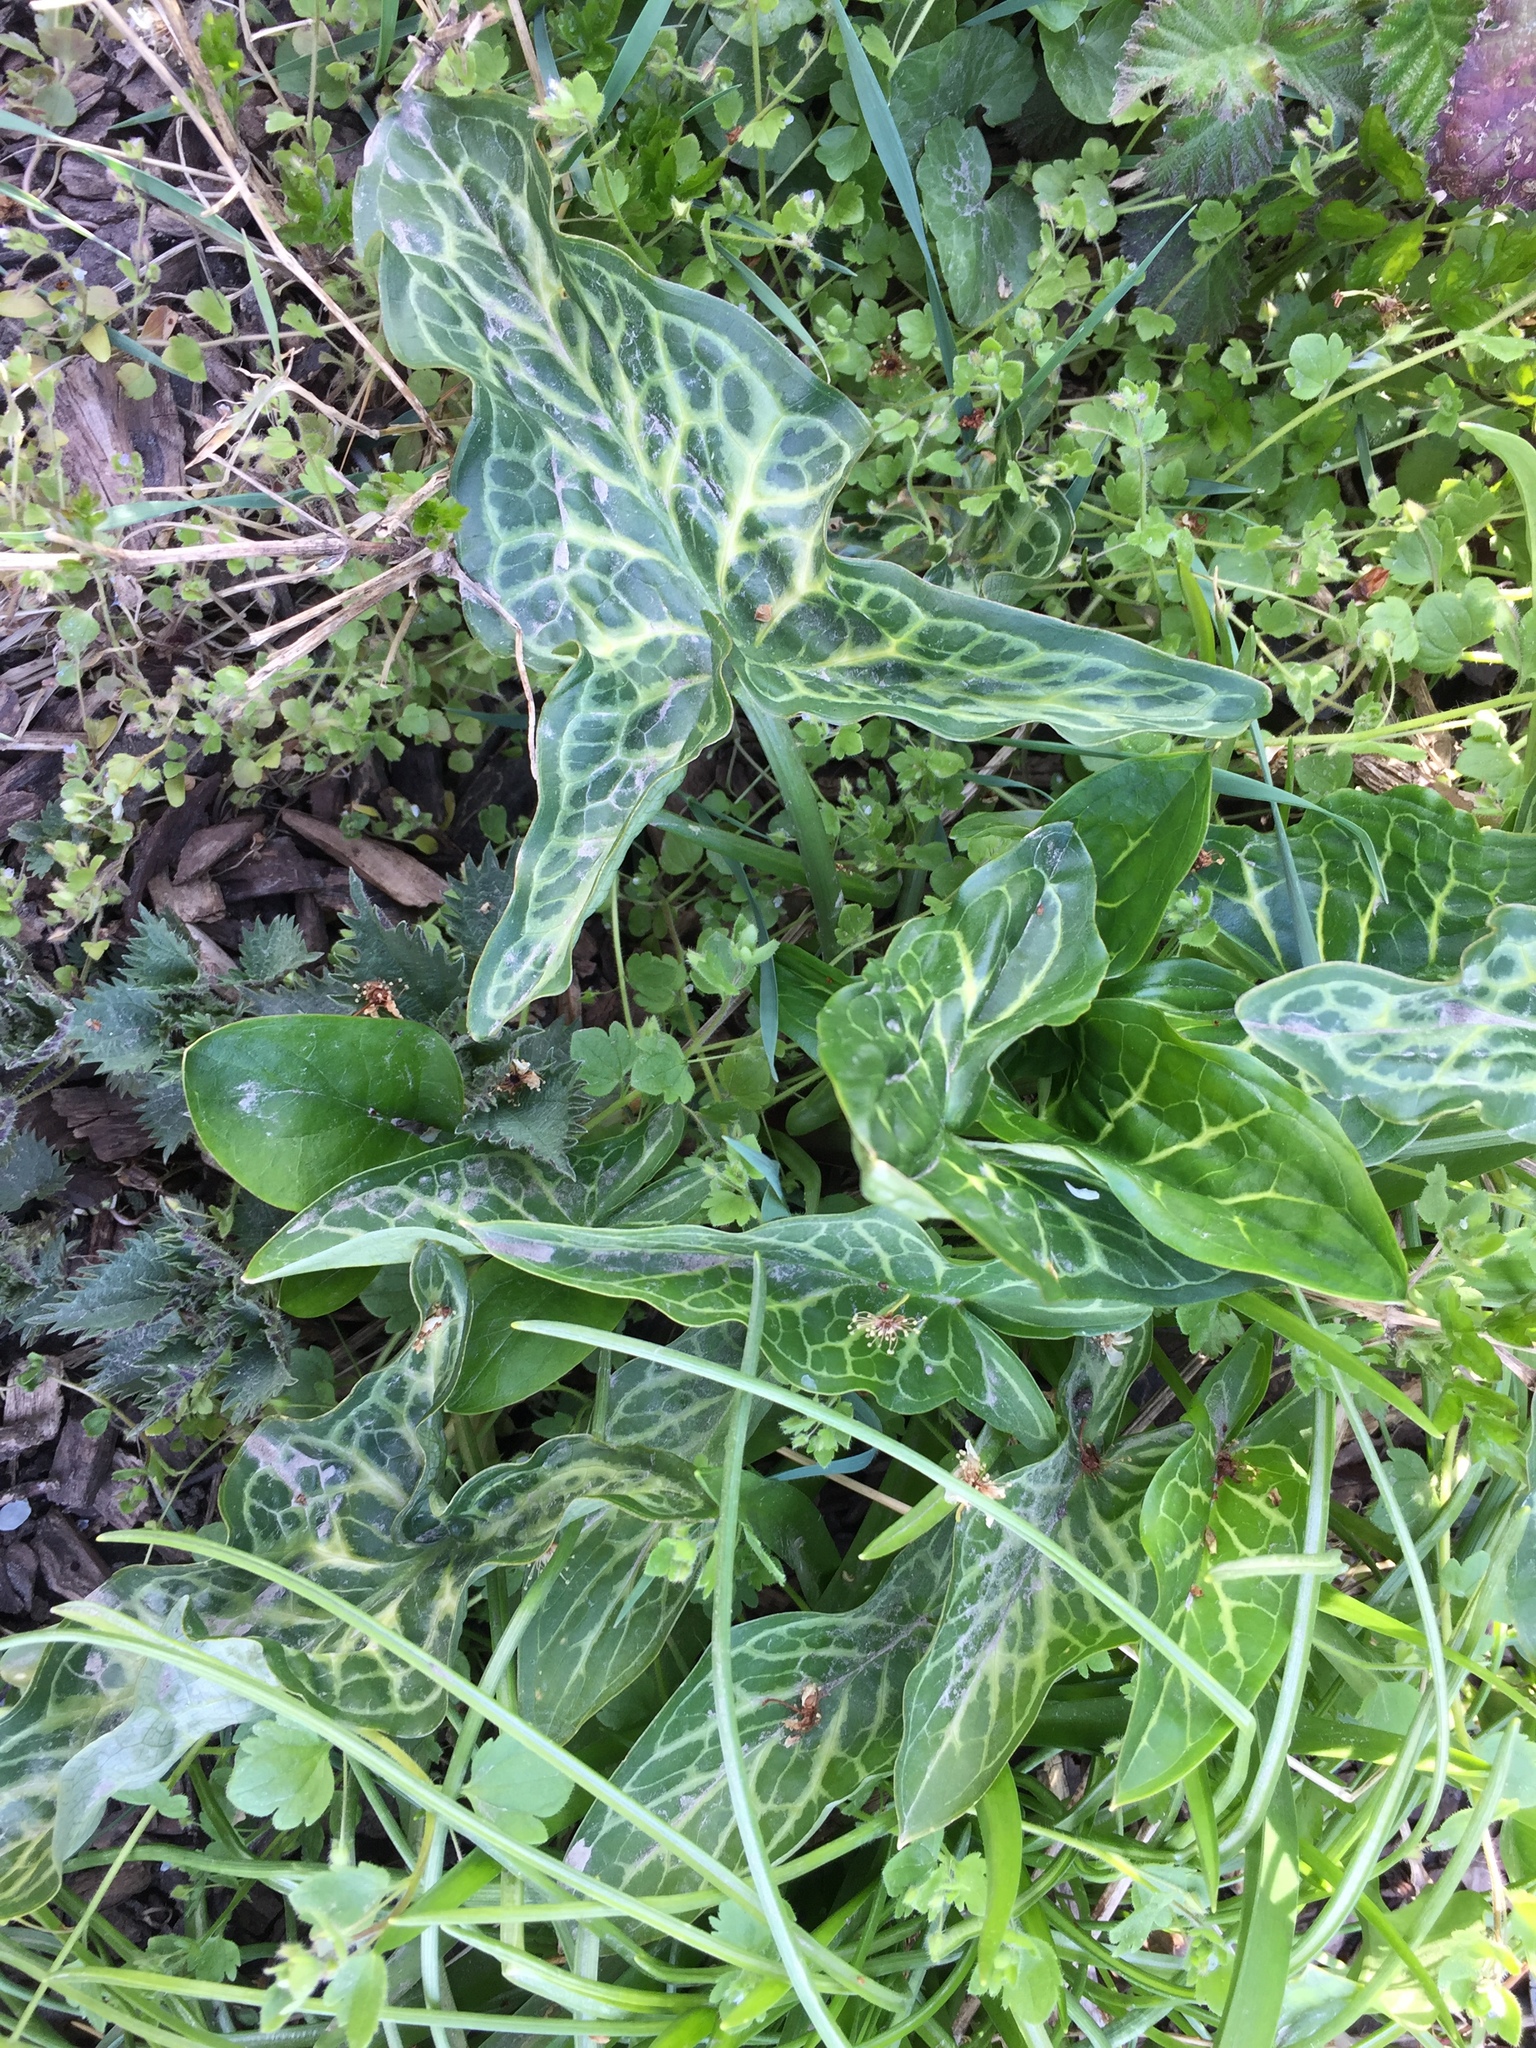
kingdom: Plantae
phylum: Tracheophyta
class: Liliopsida
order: Alismatales
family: Araceae
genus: Arum
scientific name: Arum italicum
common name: Italian lords-and-ladies
